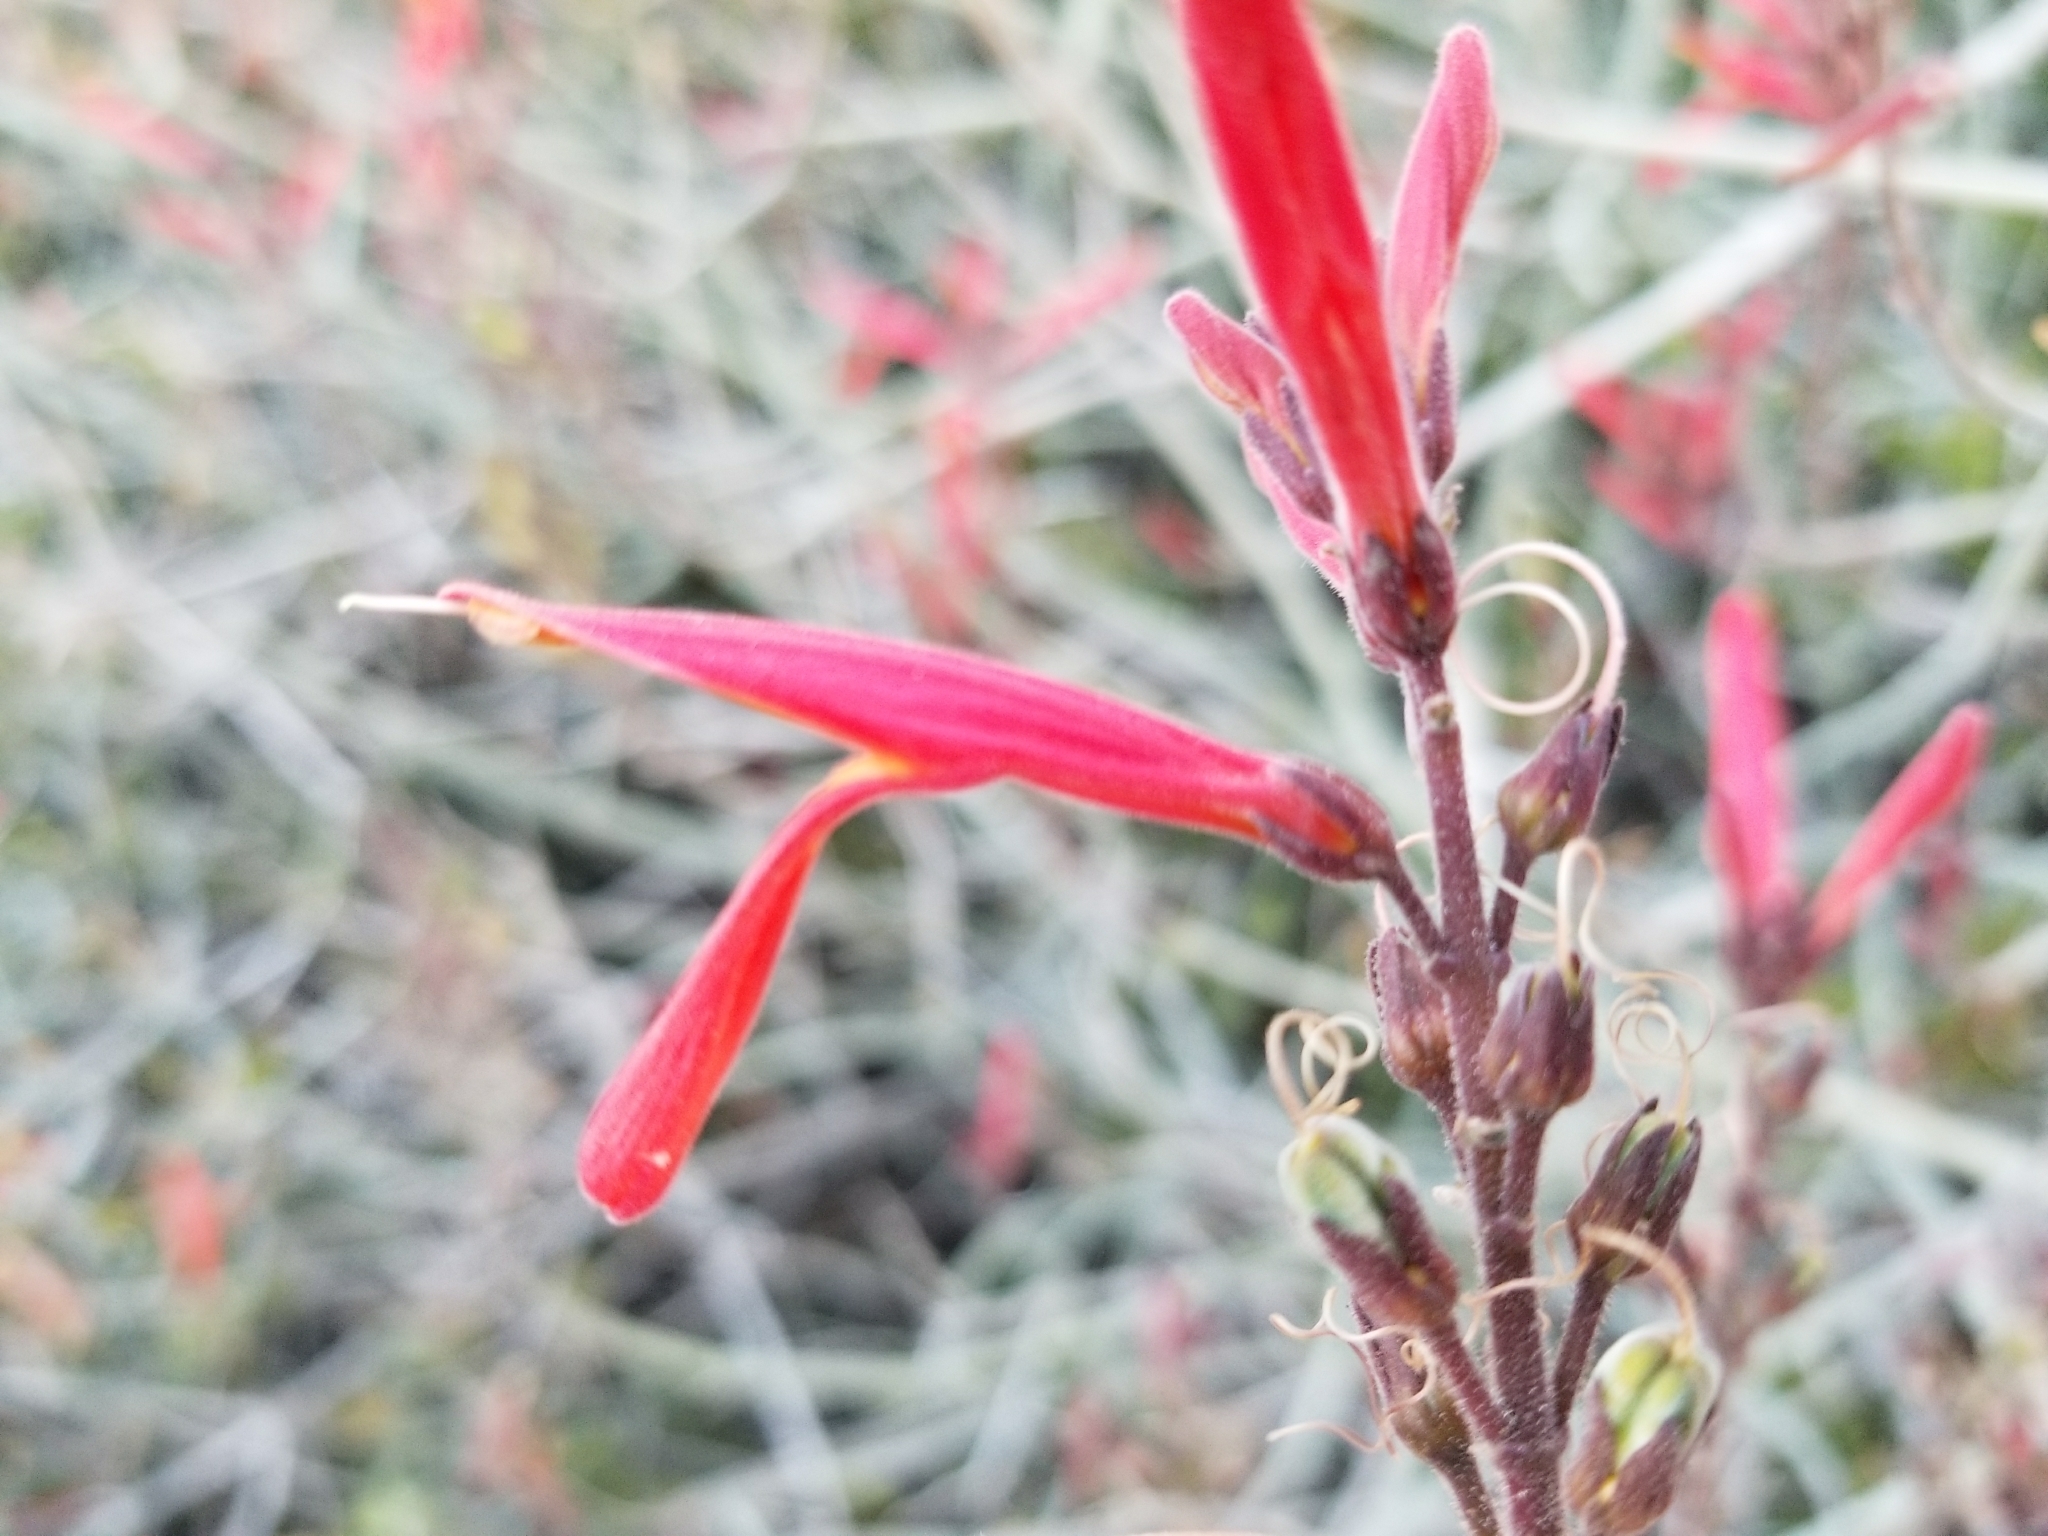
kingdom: Plantae
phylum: Tracheophyta
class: Magnoliopsida
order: Lamiales
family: Acanthaceae
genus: Justicia
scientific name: Justicia californica
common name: Chuparosa-honeysuckle
